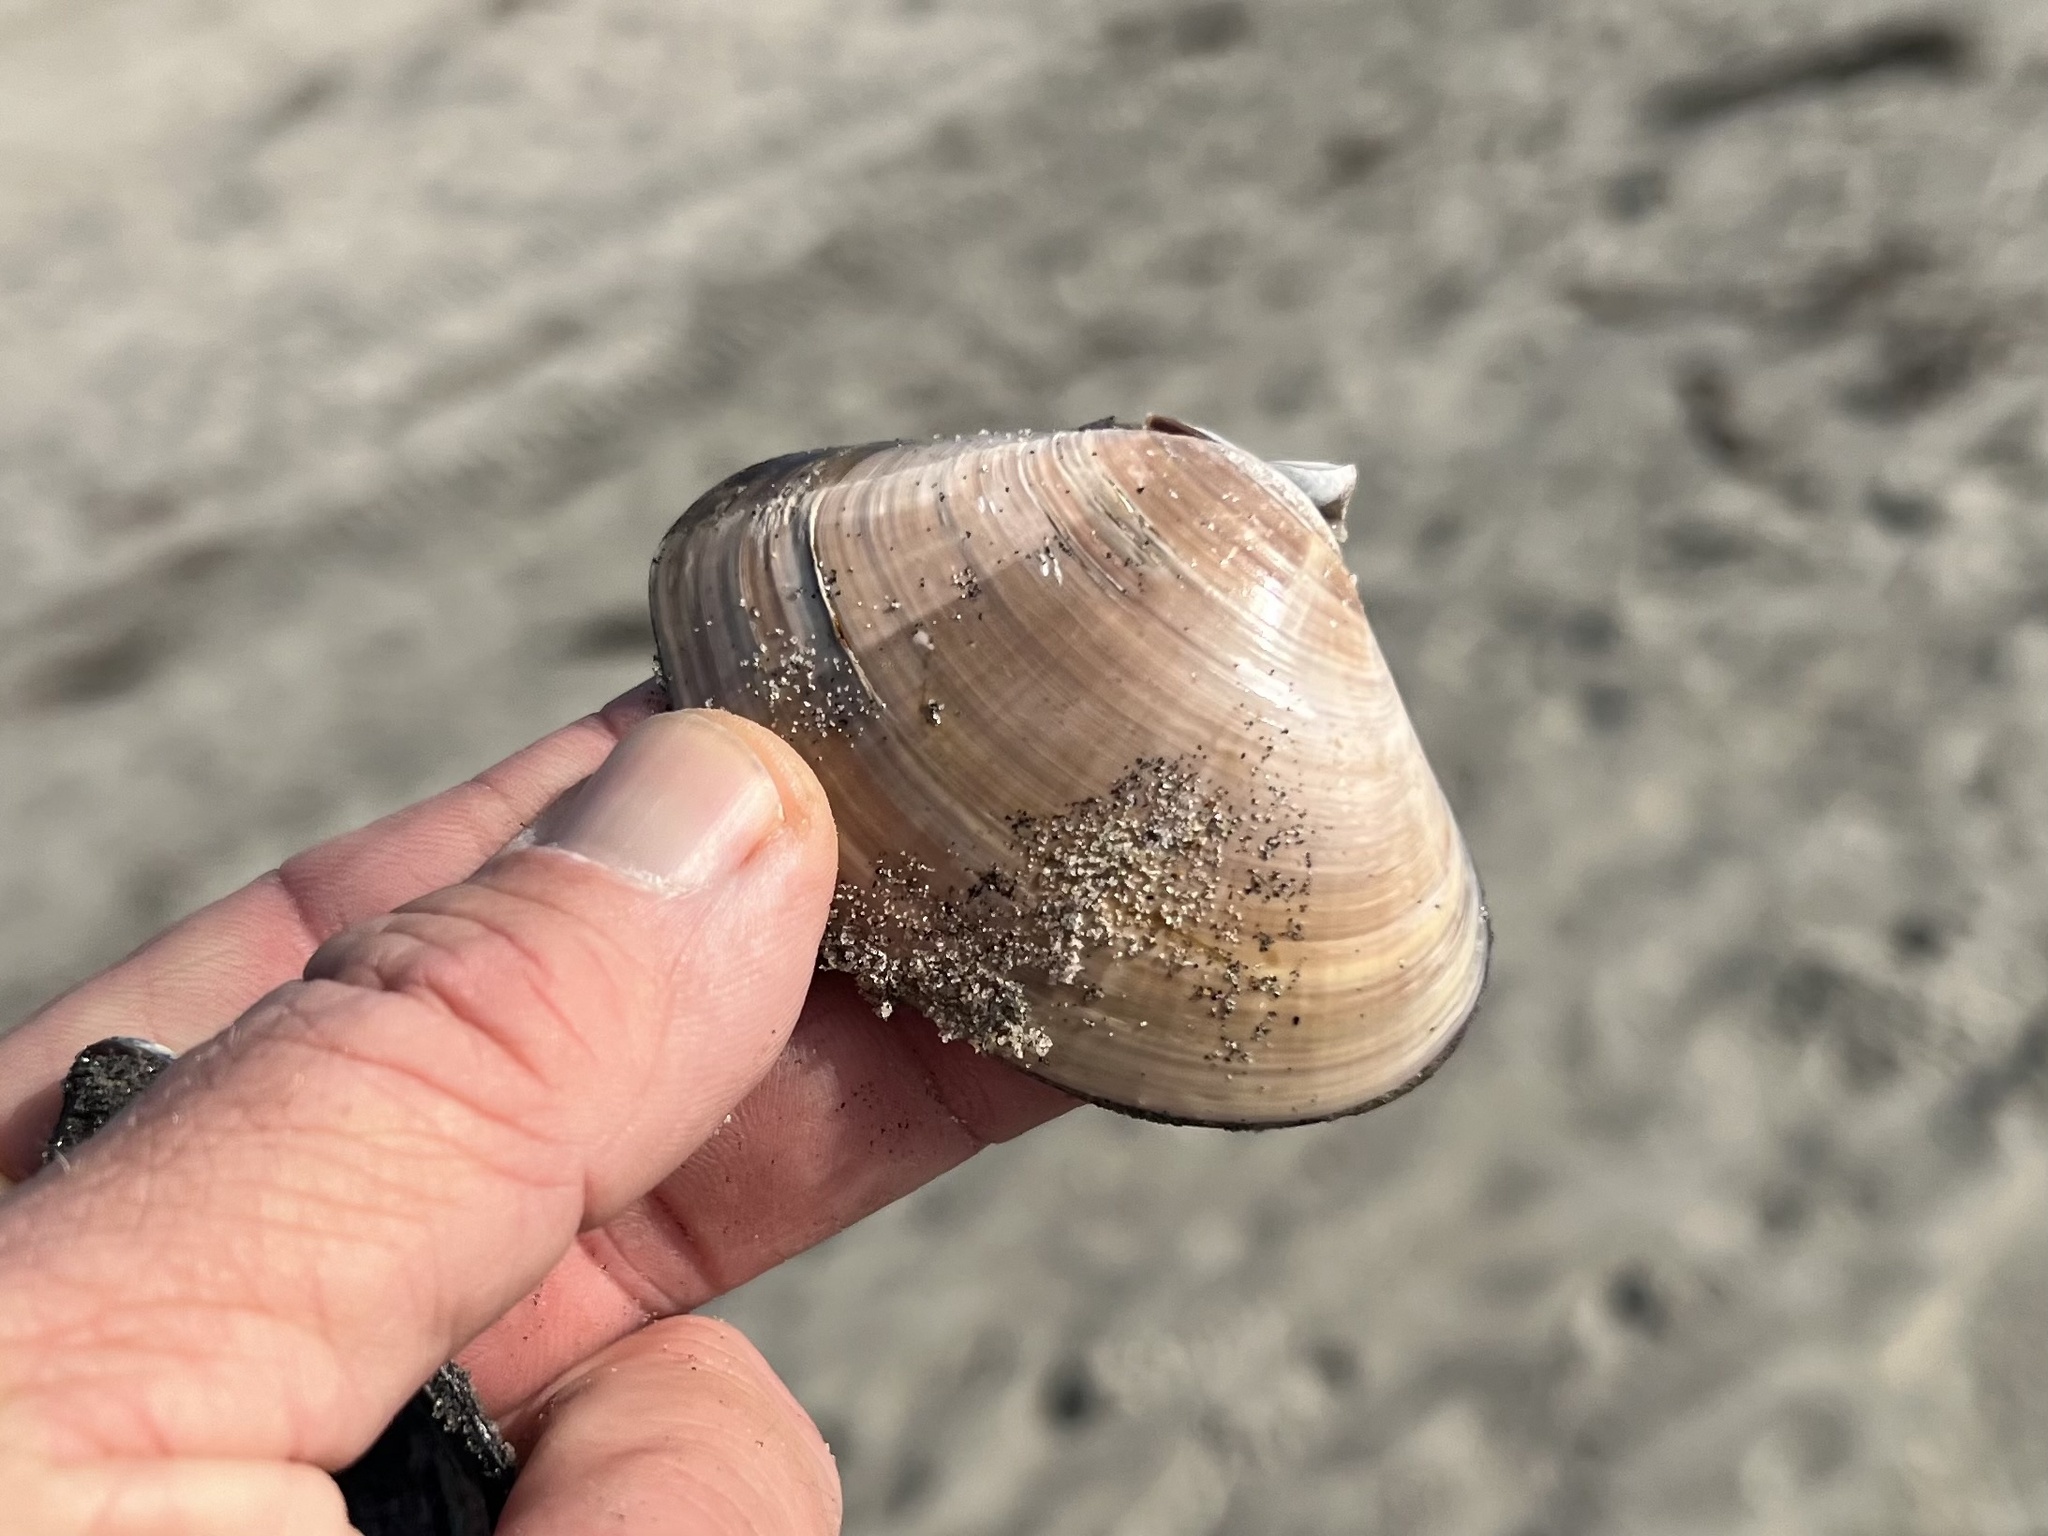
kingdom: Animalia
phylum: Mollusca
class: Bivalvia
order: Venerida
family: Veneridae
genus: Tivela
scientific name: Tivela stultorum
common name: Pismo clam
